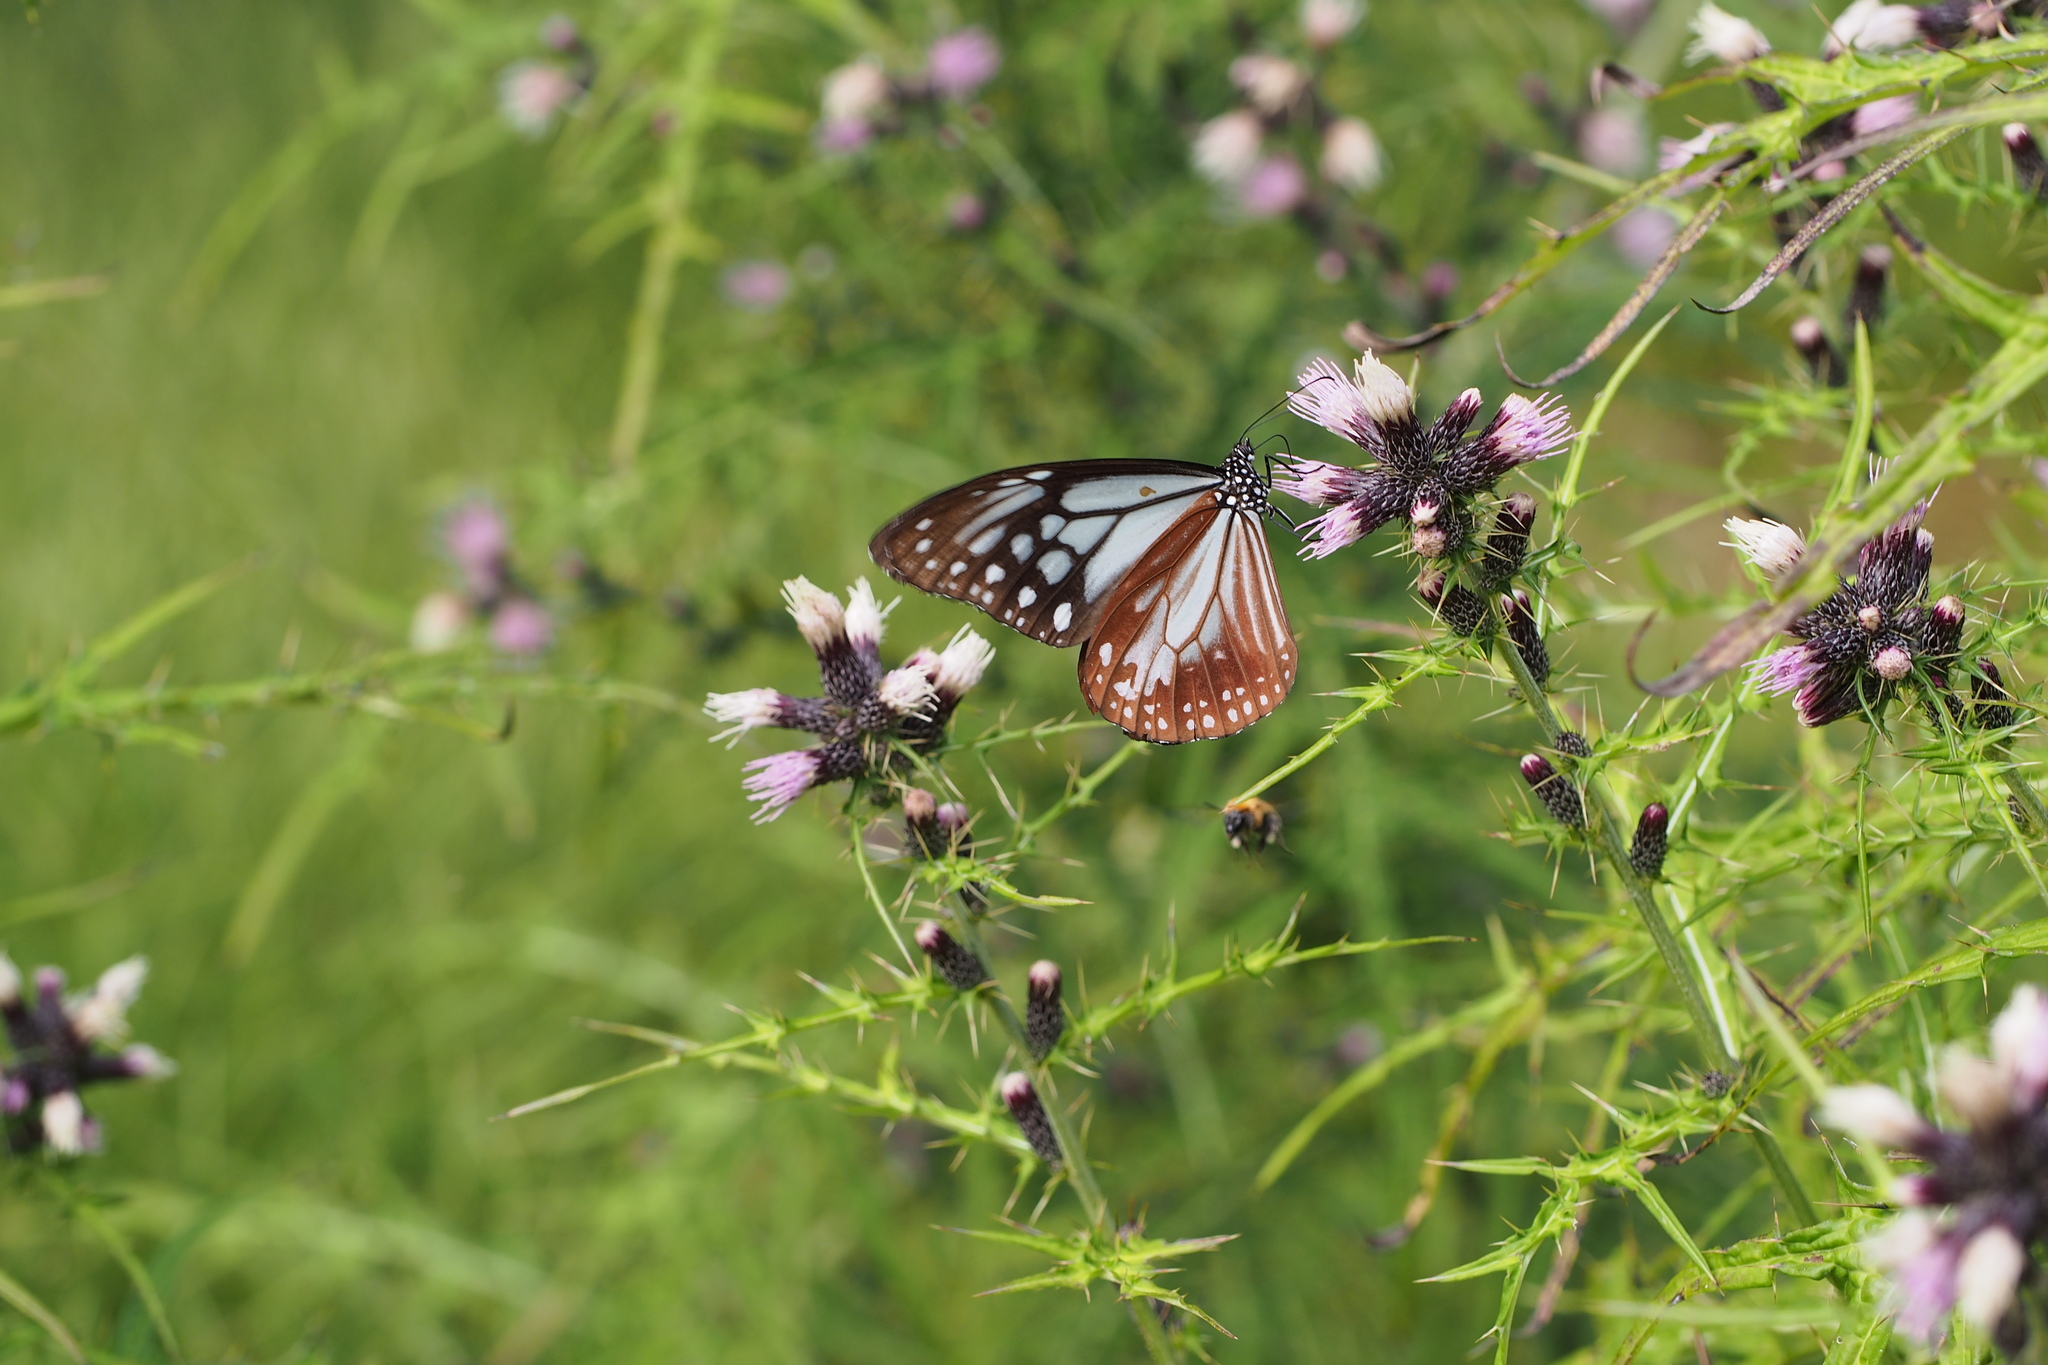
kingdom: Plantae
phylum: Tracheophyta
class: Magnoliopsida
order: Asterales
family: Asteraceae
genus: Cirsium
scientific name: Cirsium microspicatum
